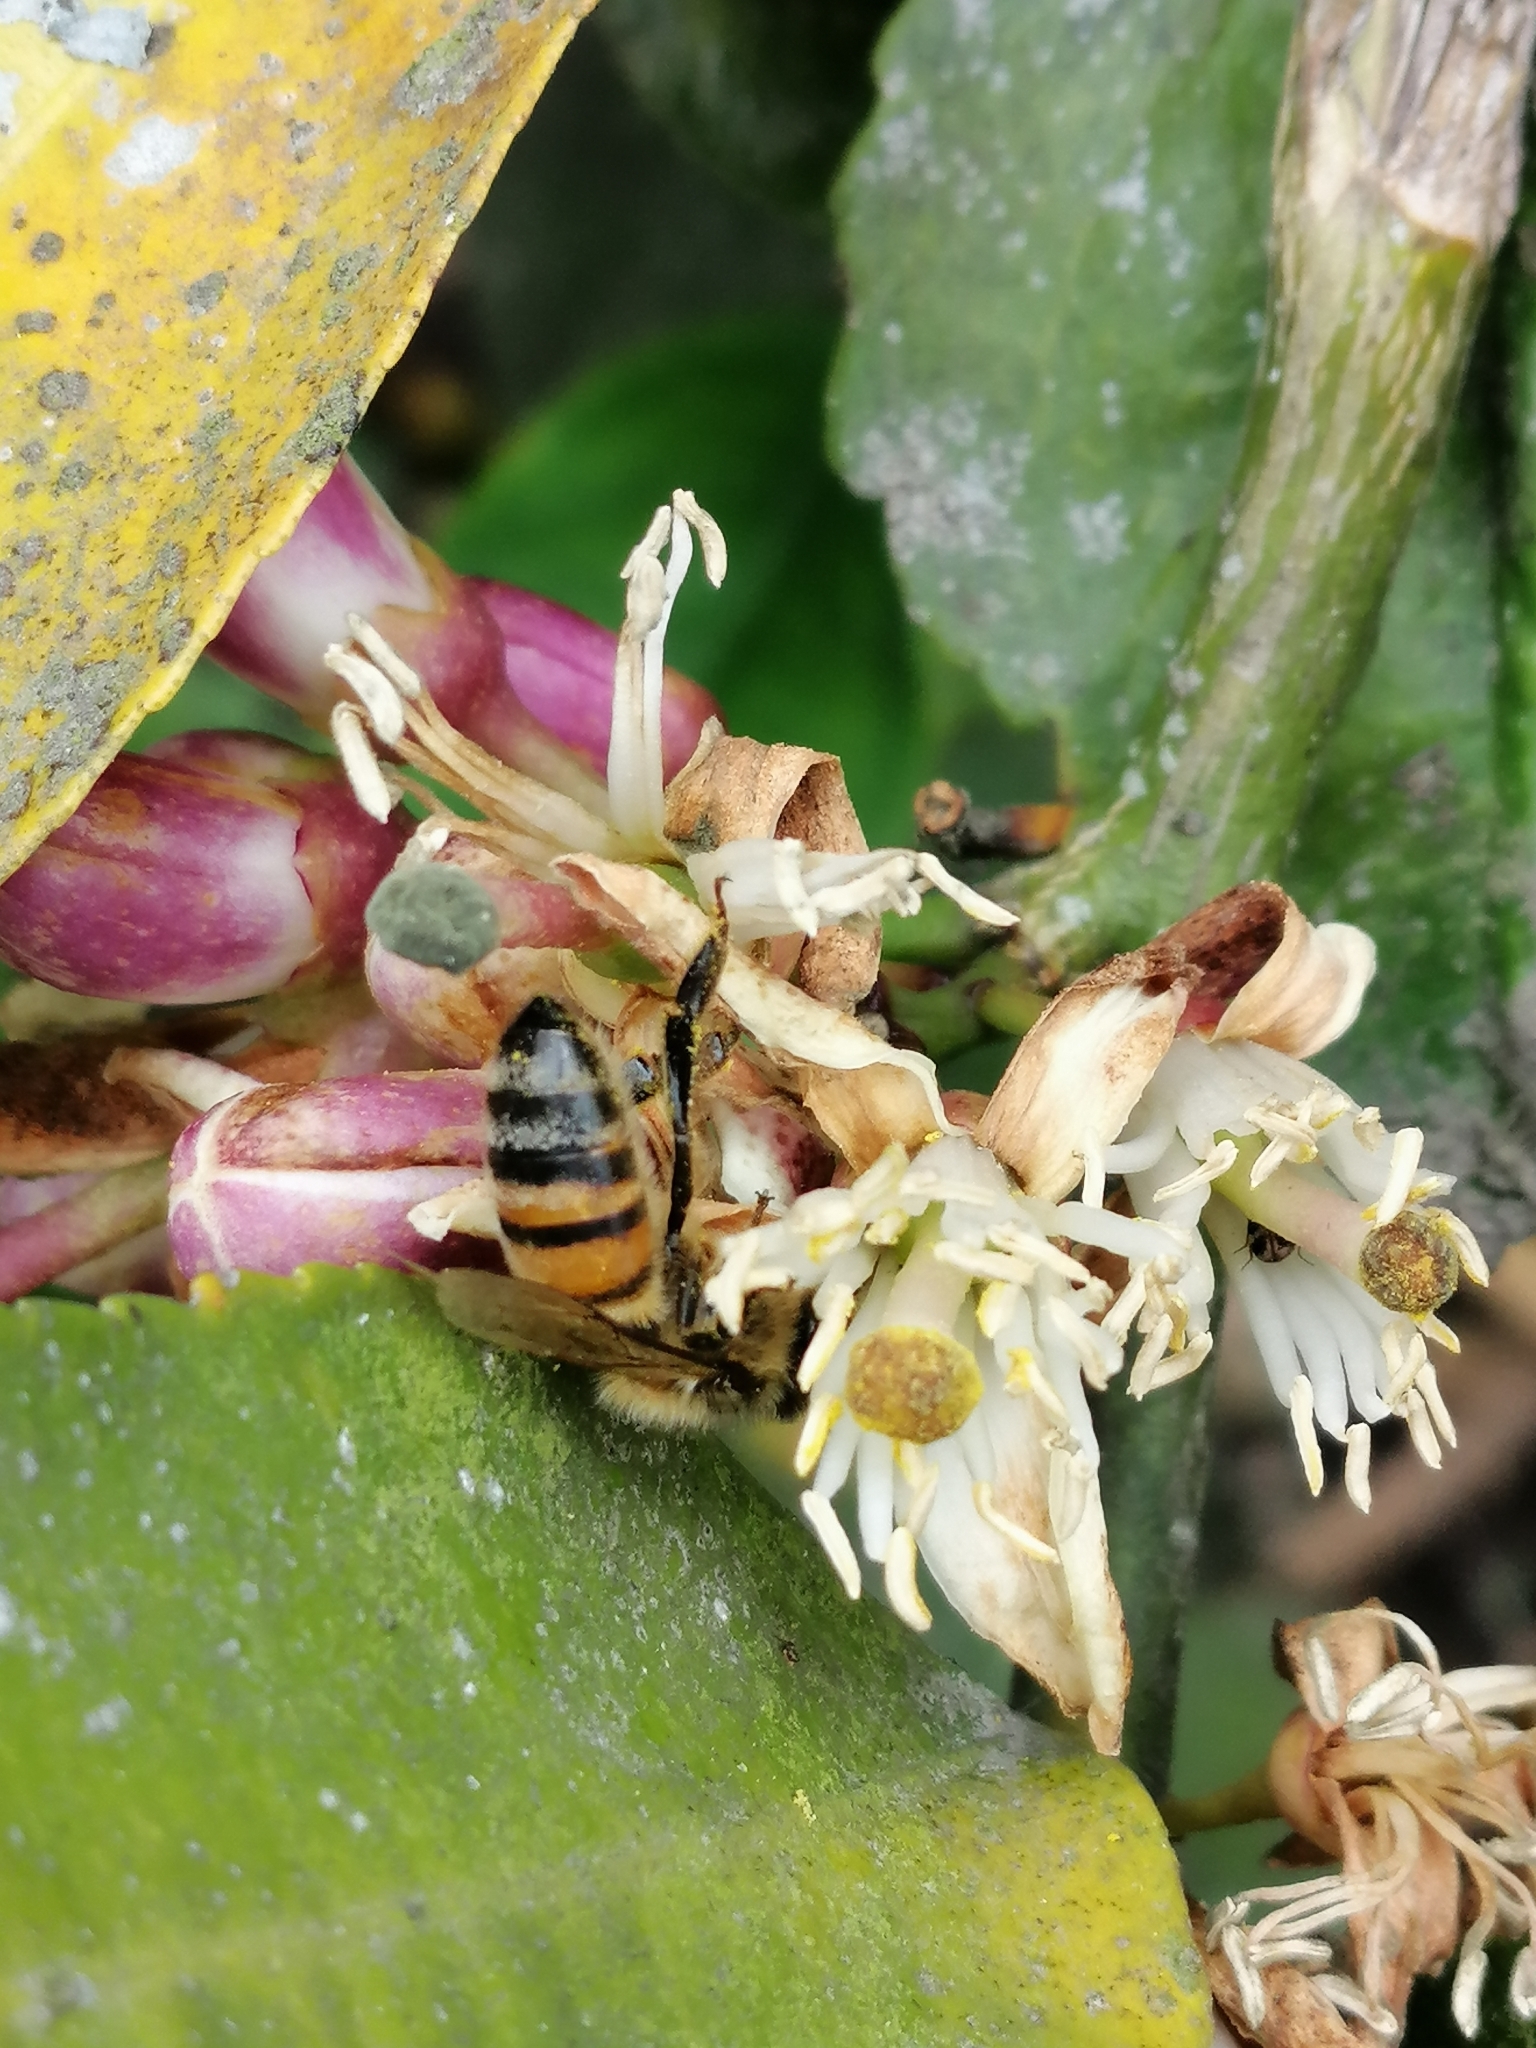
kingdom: Animalia
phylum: Arthropoda
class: Insecta
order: Hymenoptera
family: Apidae
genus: Apis
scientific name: Apis mellifera
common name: Honey bee
